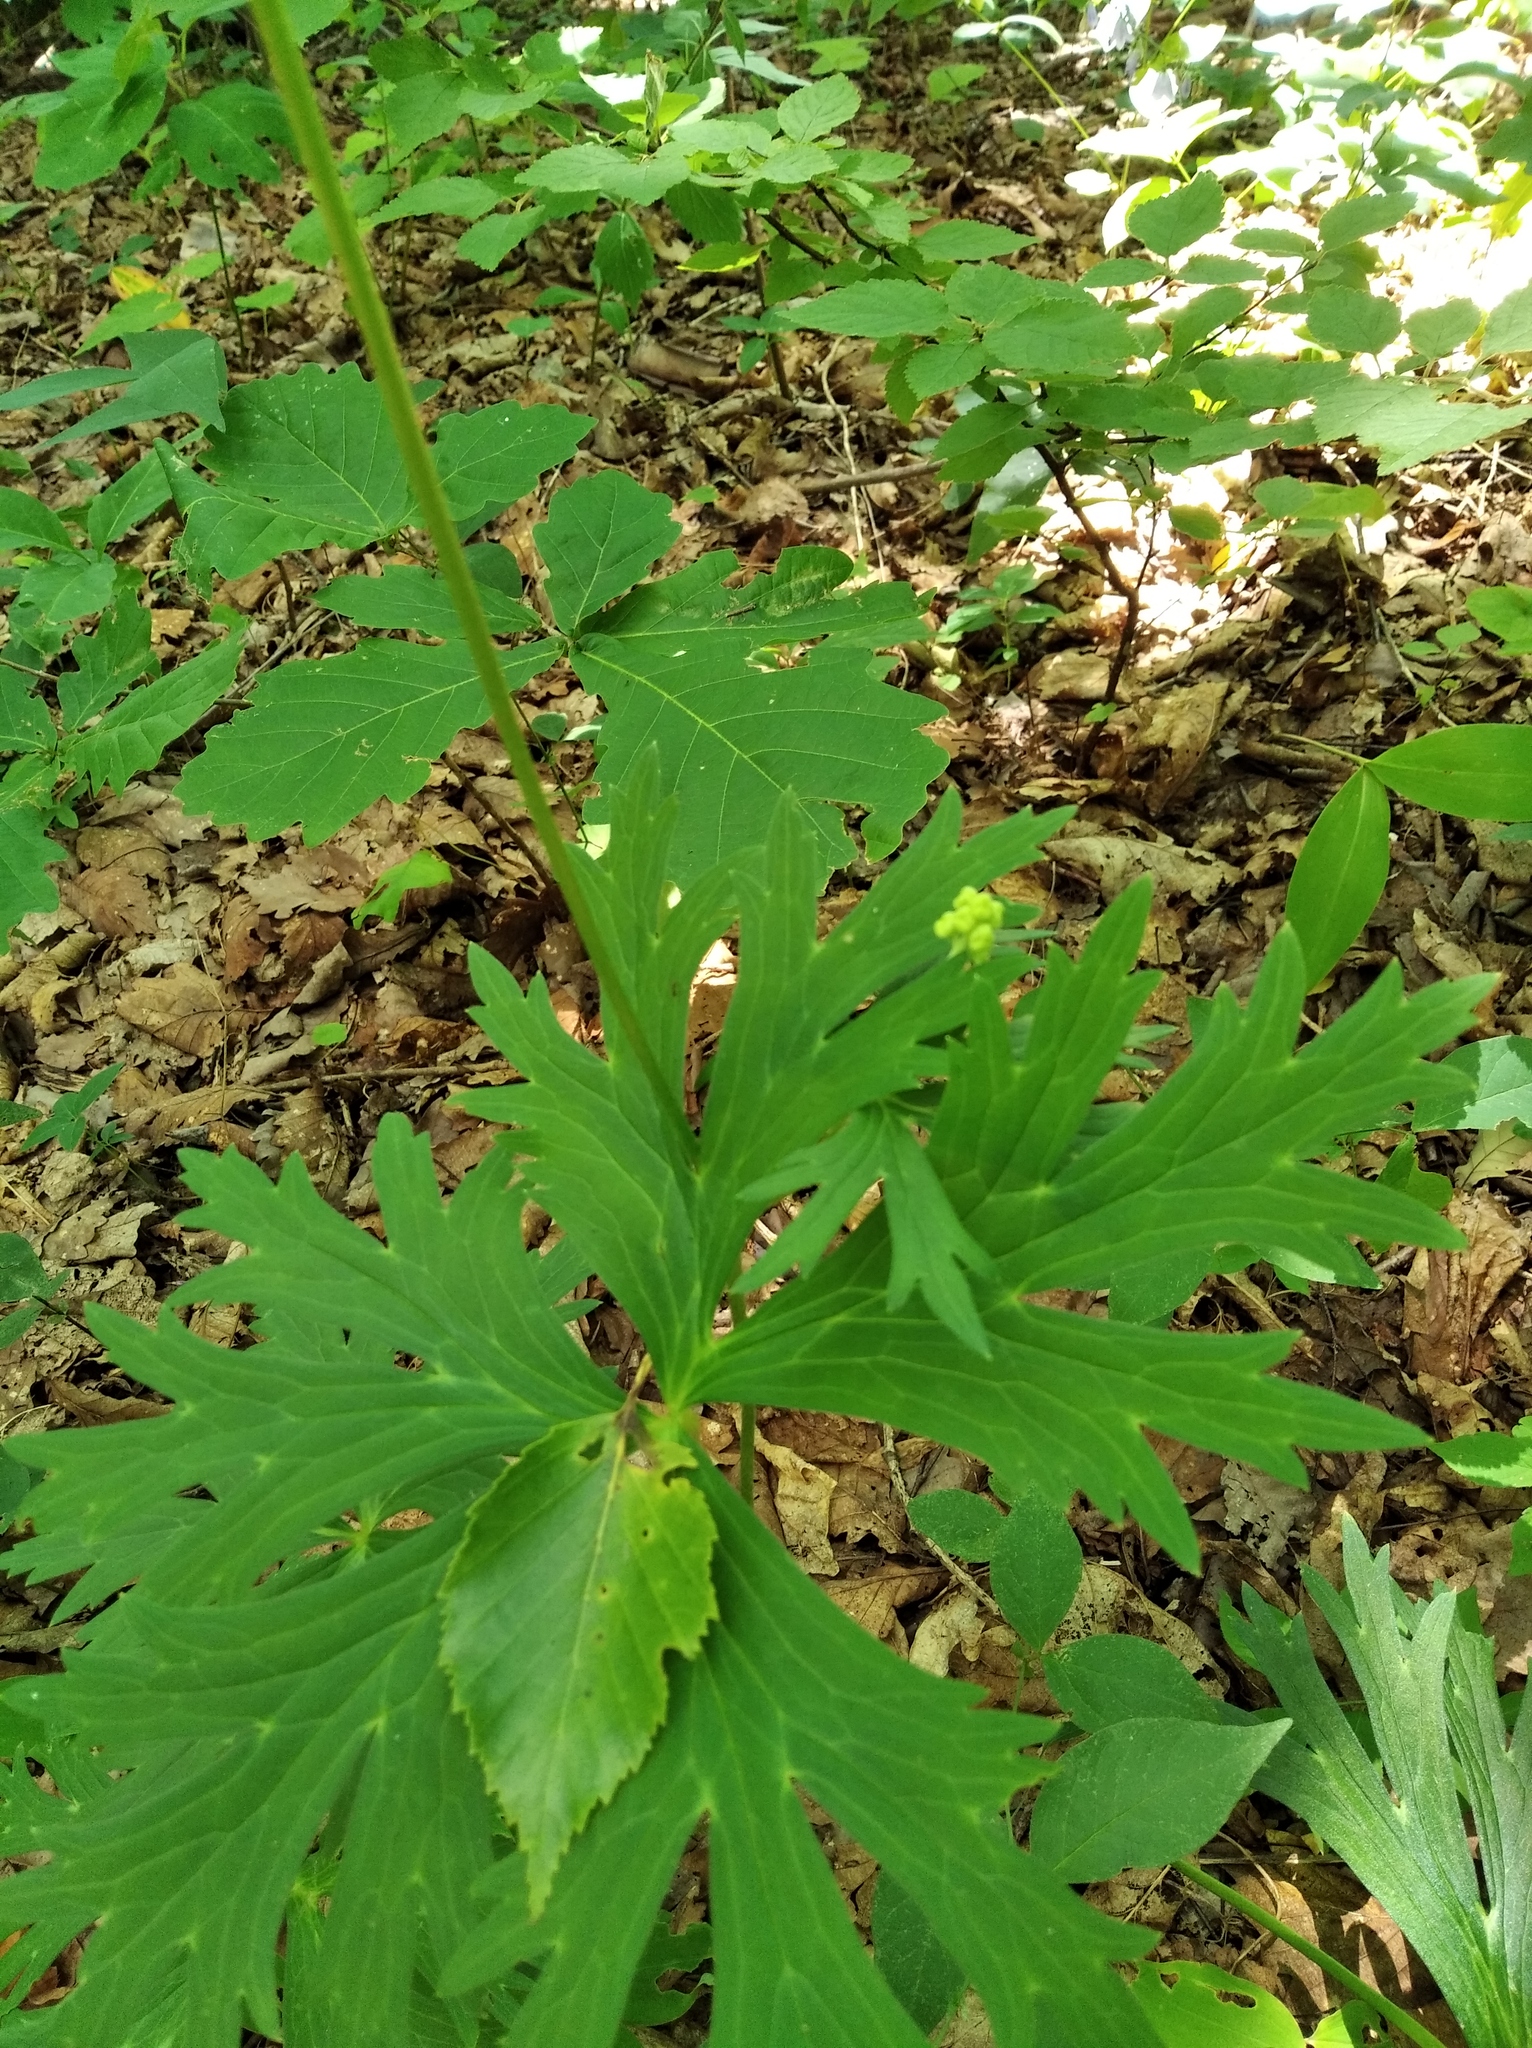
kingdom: Plantae
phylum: Tracheophyta
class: Magnoliopsida
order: Ranunculales
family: Ranunculaceae
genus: Aconitum
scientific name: Aconitum kirinense
